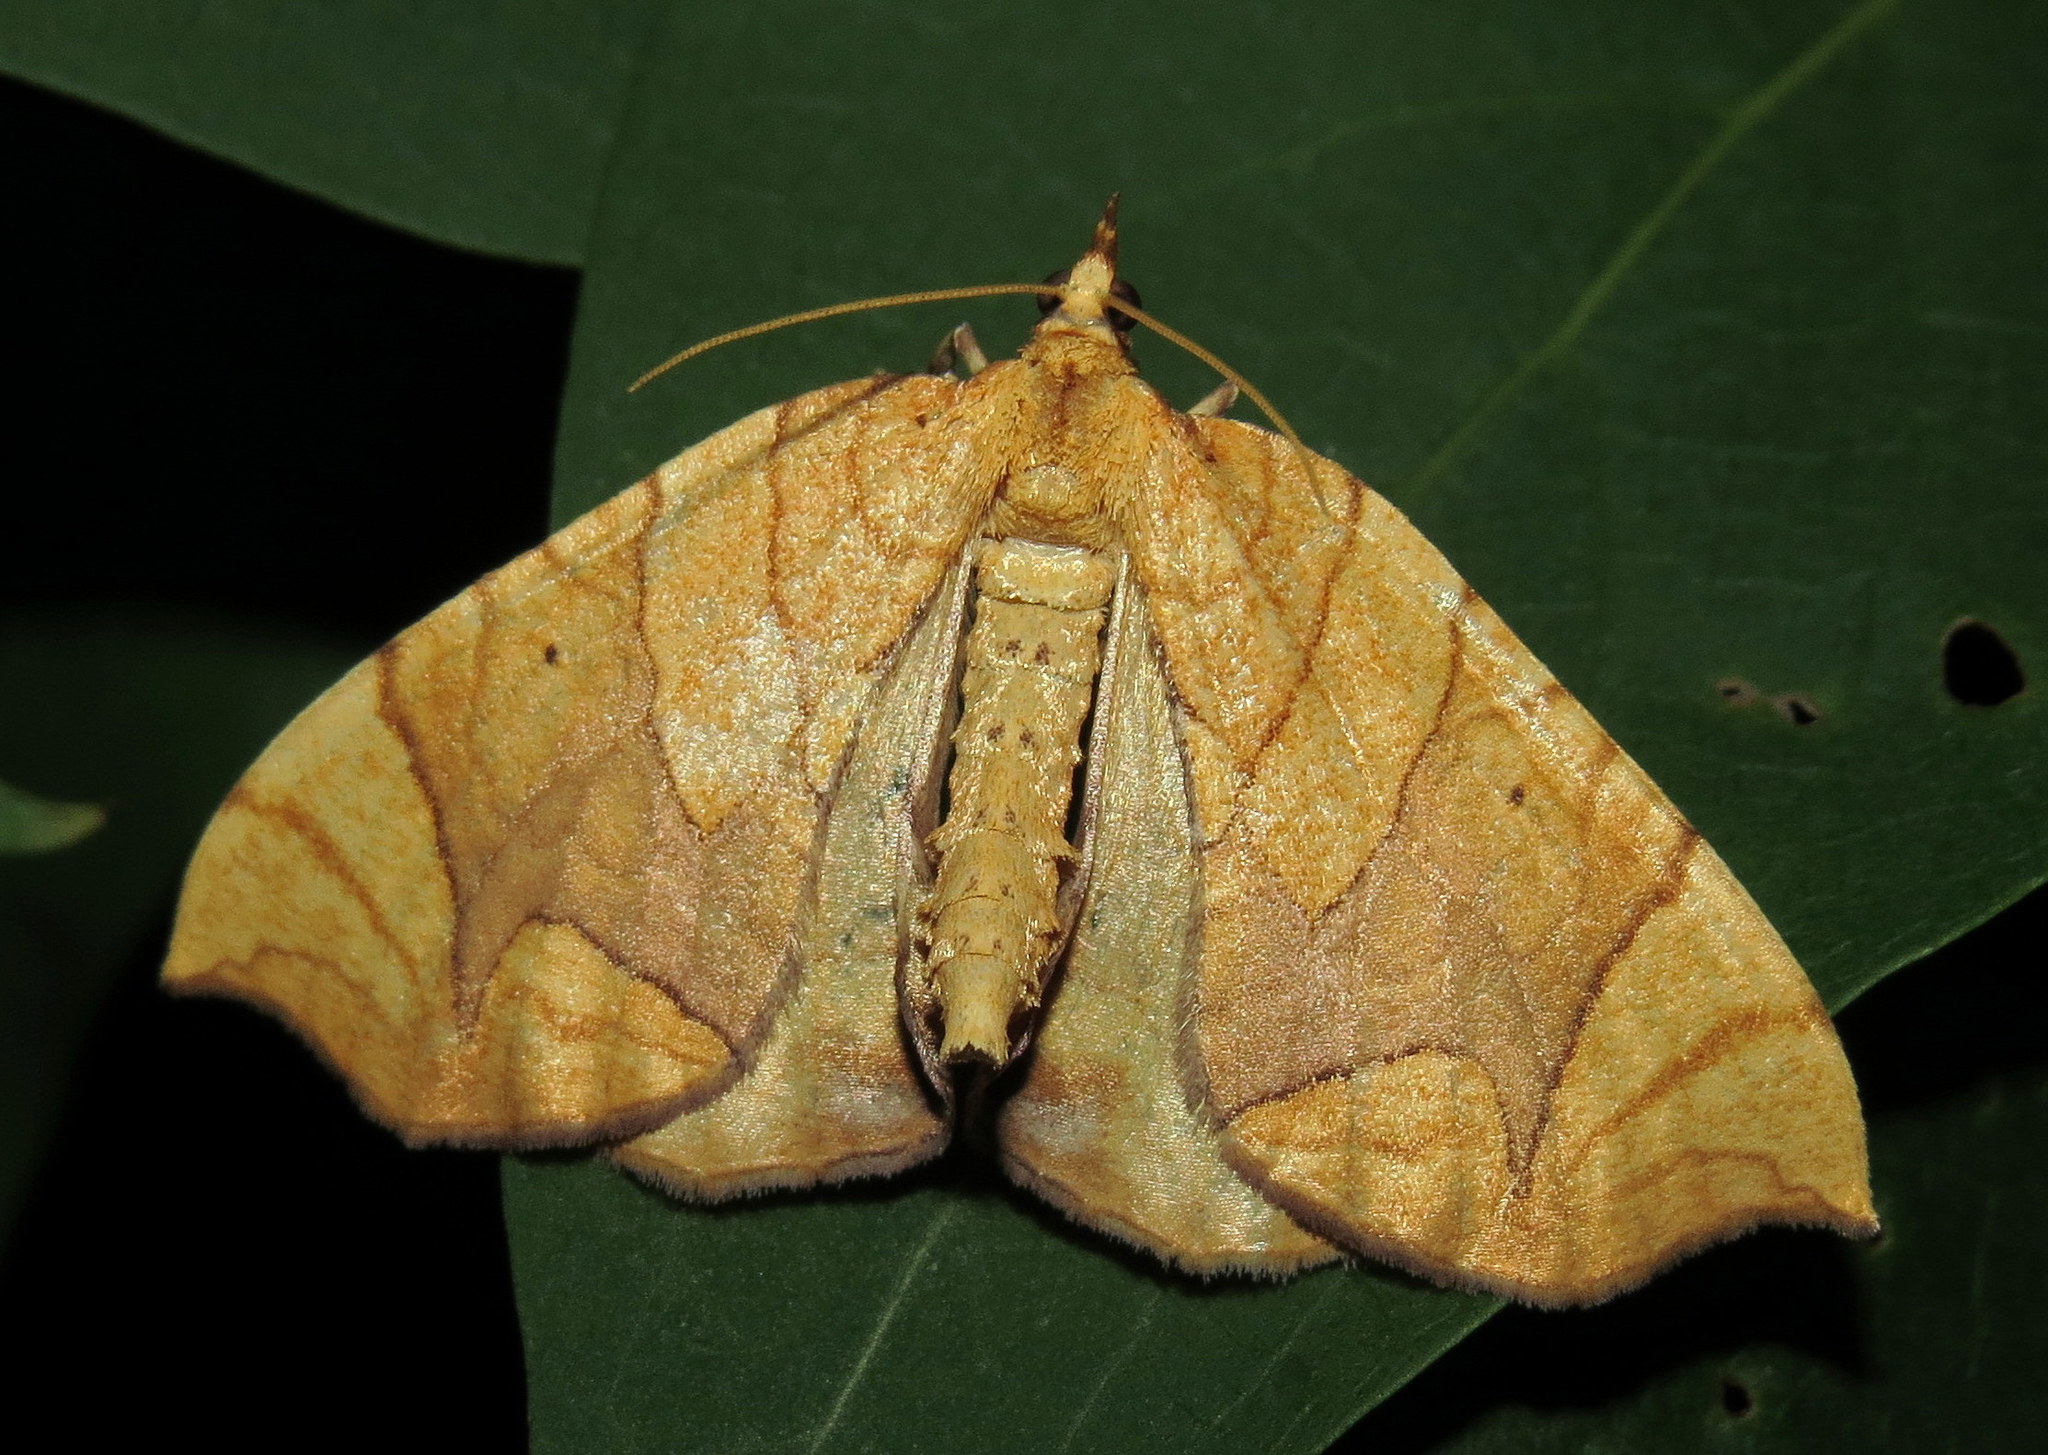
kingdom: Animalia
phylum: Arthropoda
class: Insecta
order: Lepidoptera
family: Geometridae
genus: Eulithis
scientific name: Eulithis
